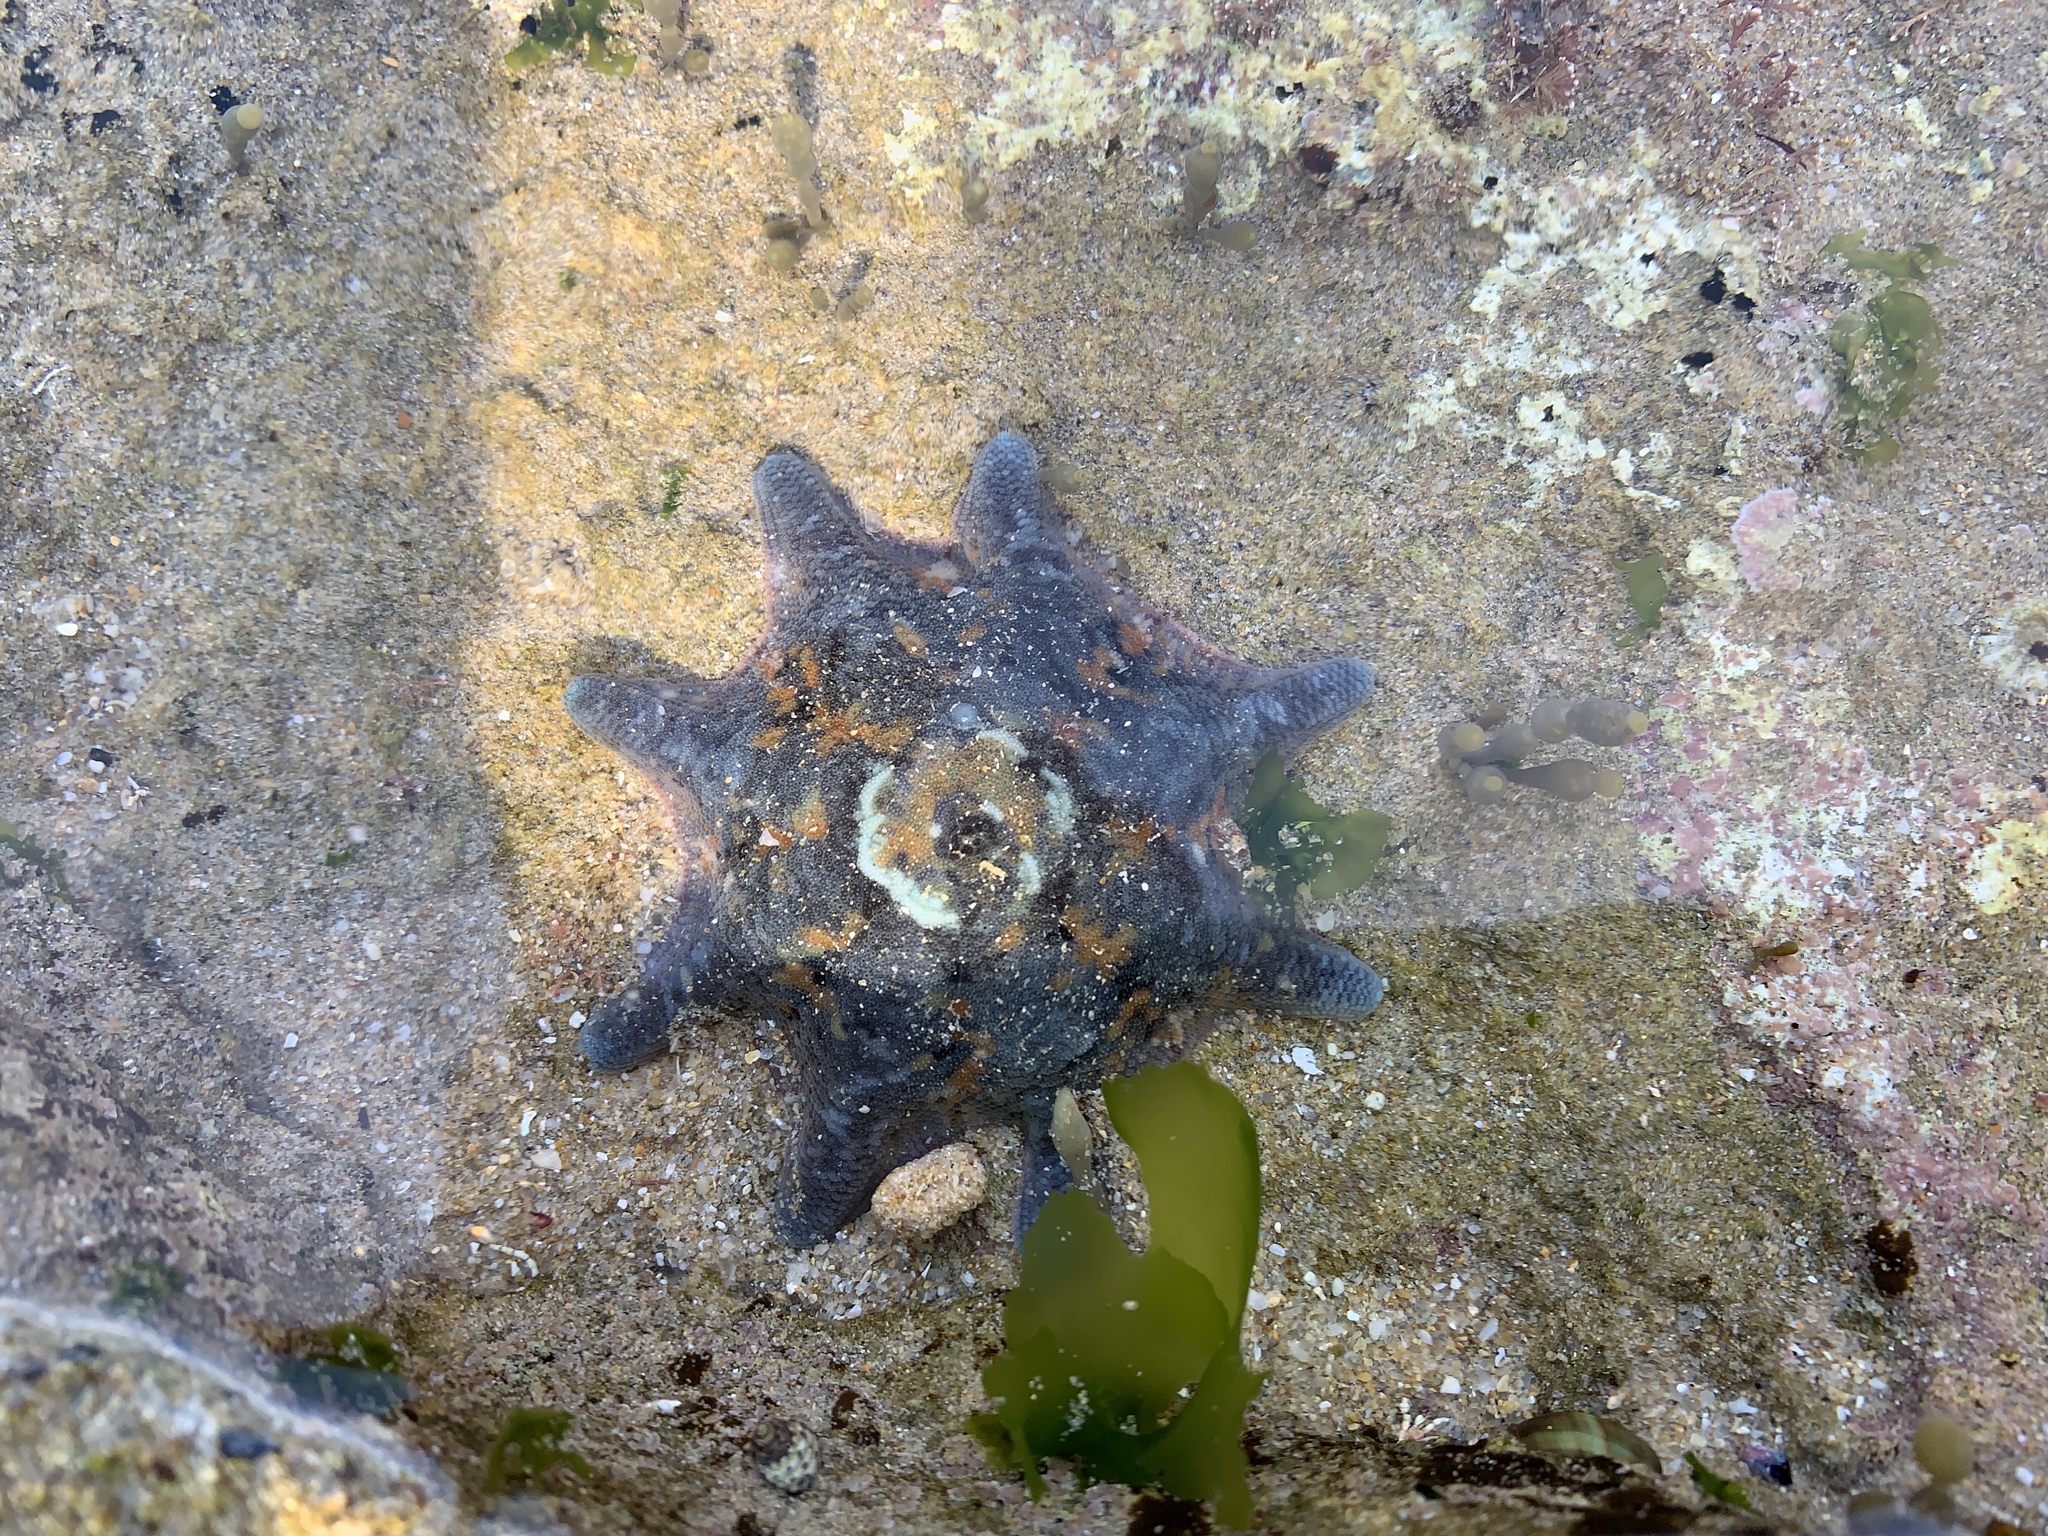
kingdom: Animalia
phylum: Echinodermata
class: Asteroidea
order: Valvatida
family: Asterinidae
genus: Meridiastra
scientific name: Meridiastra calcar
